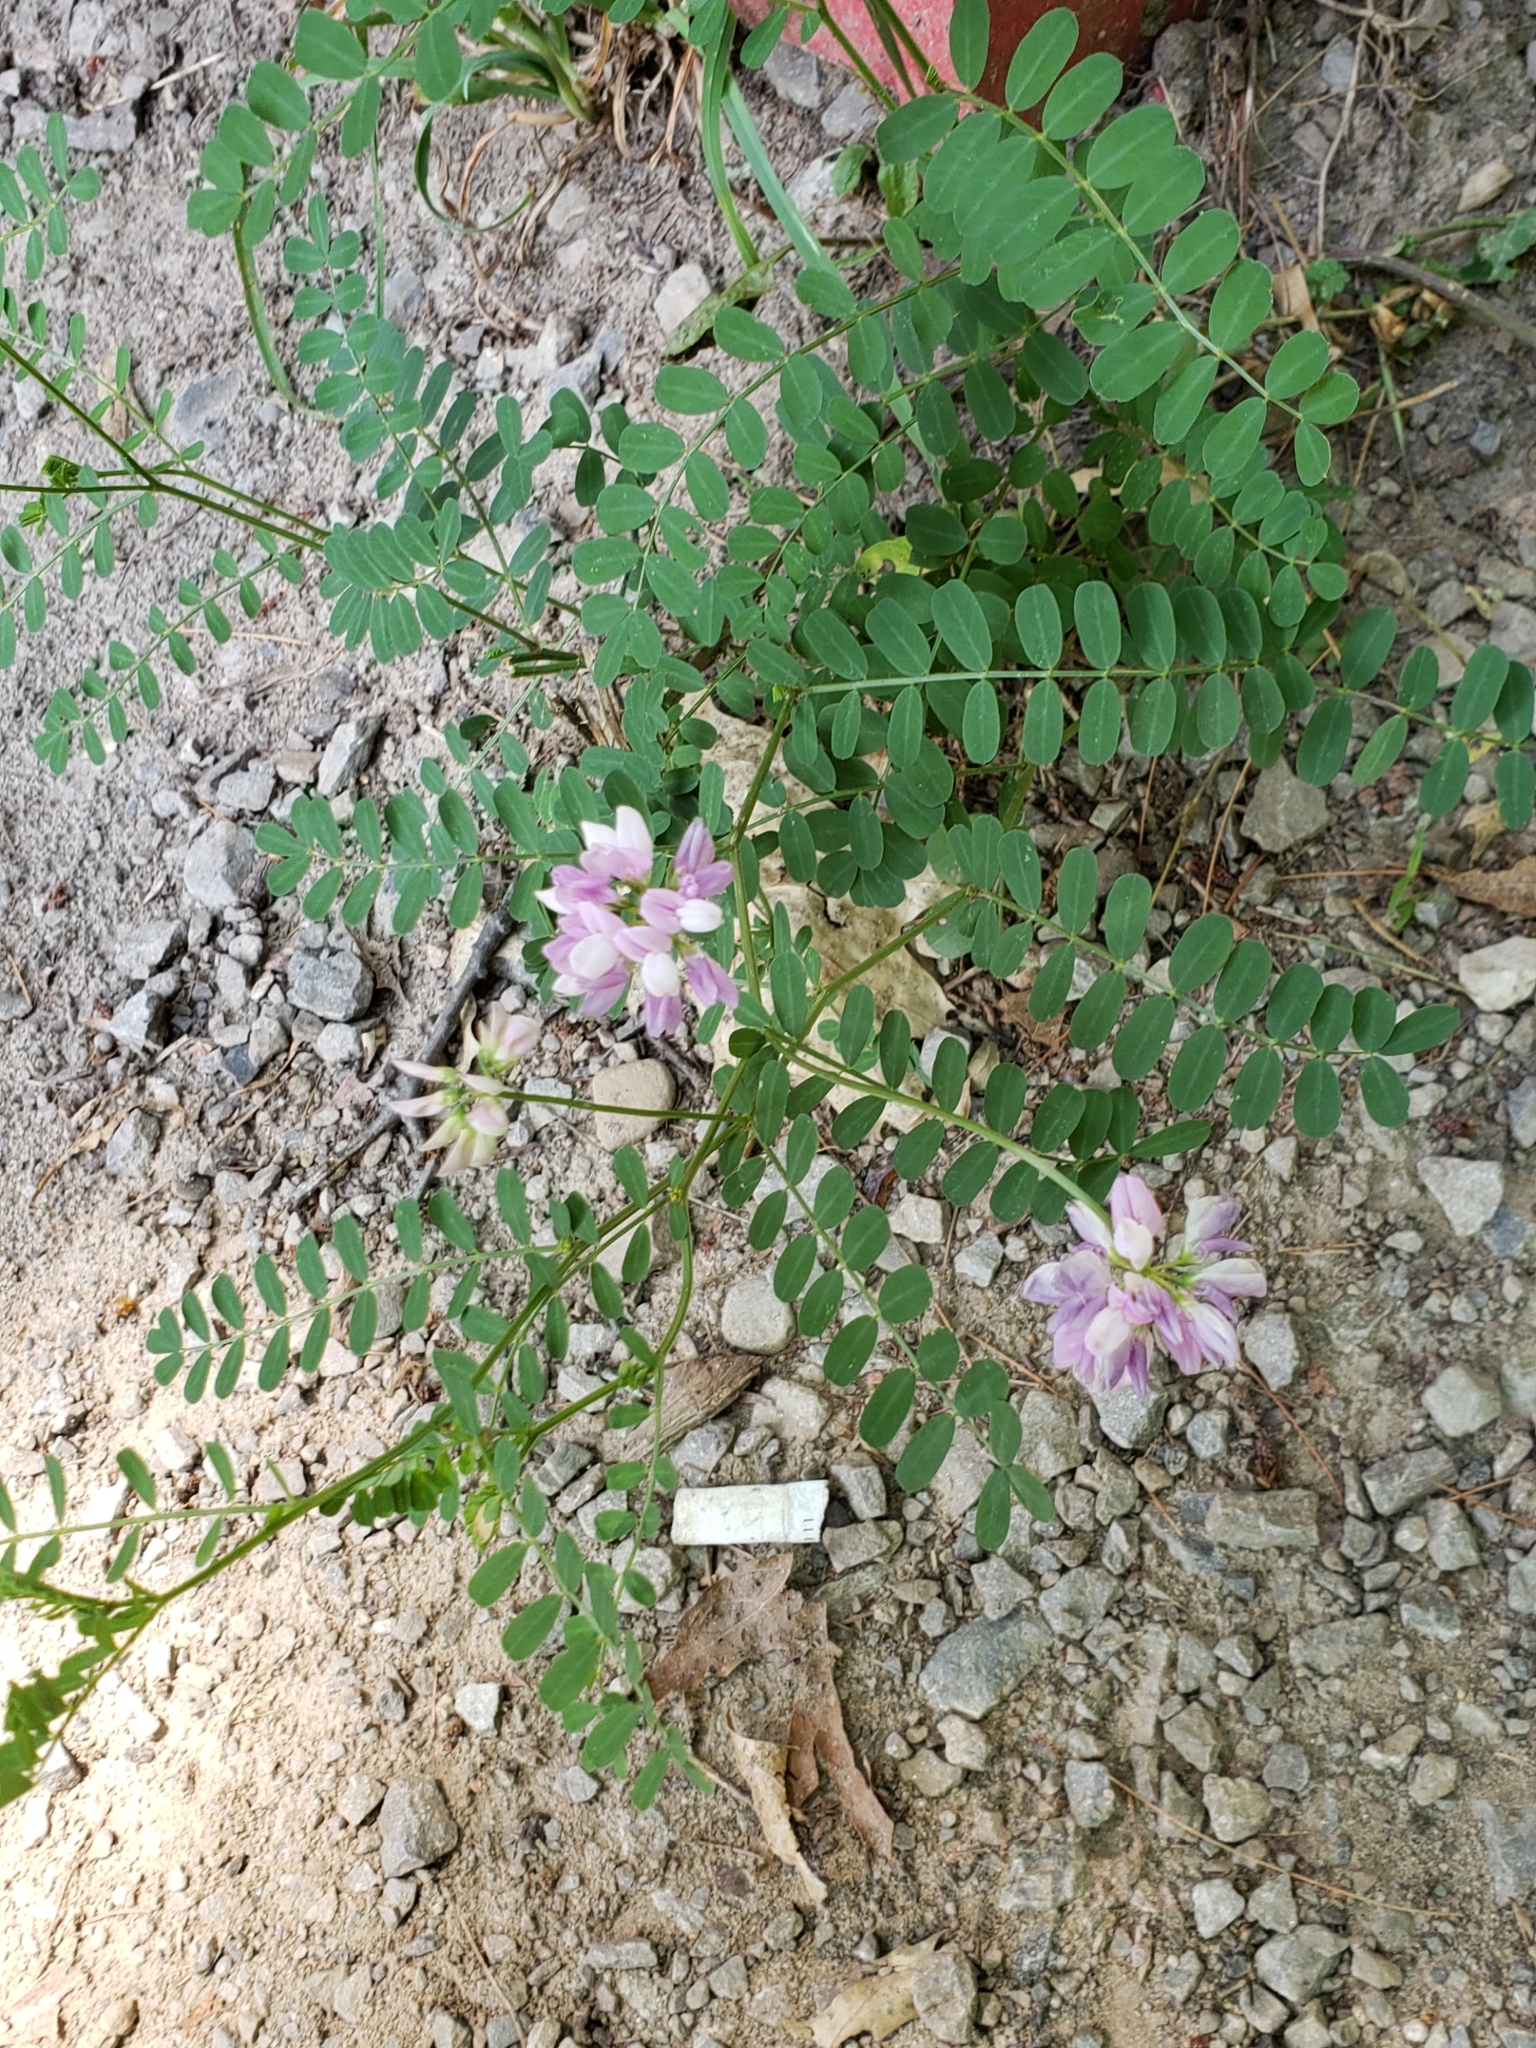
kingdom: Plantae
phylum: Tracheophyta
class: Magnoliopsida
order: Fabales
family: Fabaceae
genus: Coronilla
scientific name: Coronilla varia
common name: Crownvetch
